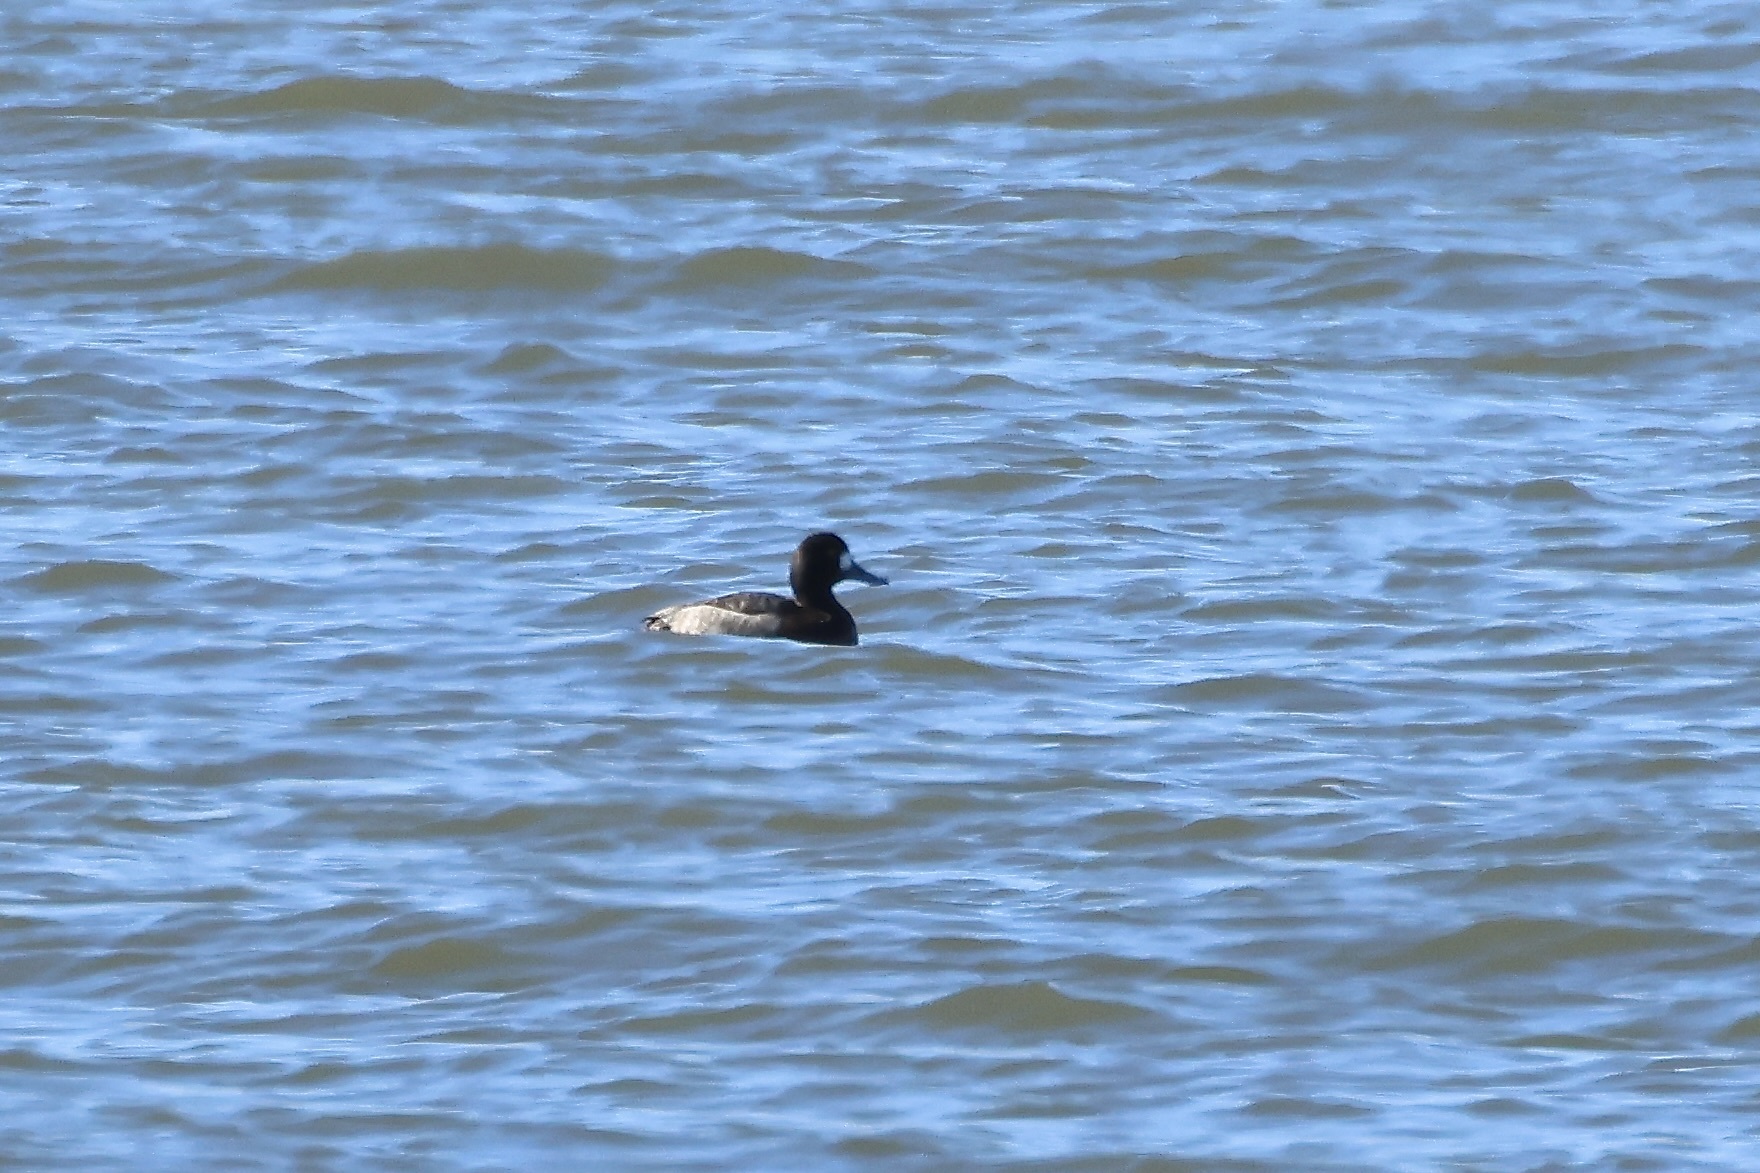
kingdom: Animalia
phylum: Chordata
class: Aves
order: Anseriformes
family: Anatidae
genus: Aythya
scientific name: Aythya marila
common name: Greater scaup
